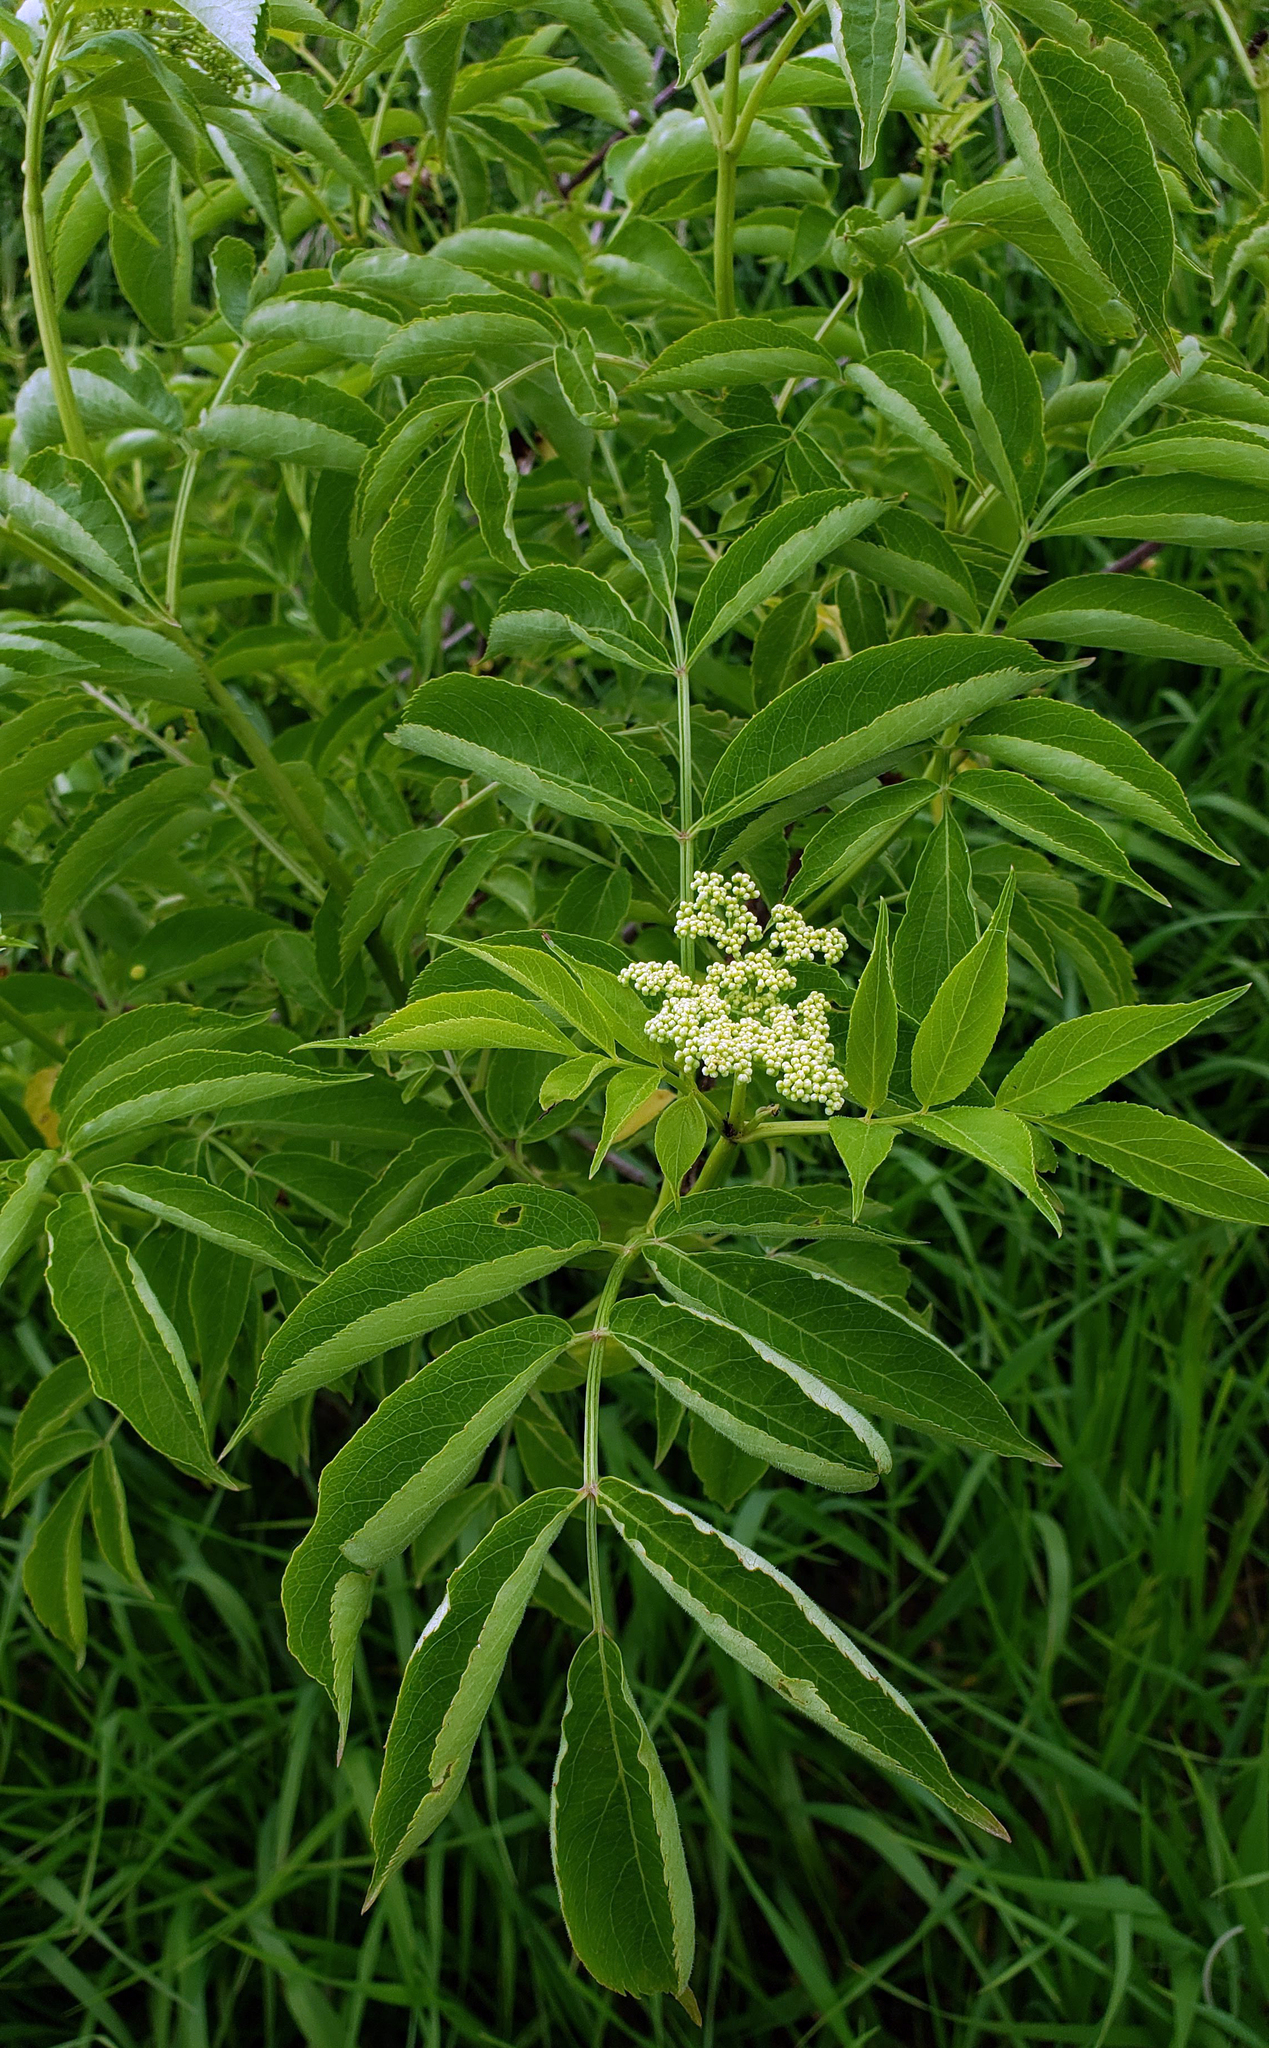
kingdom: Plantae
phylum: Tracheophyta
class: Magnoliopsida
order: Dipsacales
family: Viburnaceae
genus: Sambucus
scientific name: Sambucus canadensis
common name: American elder
